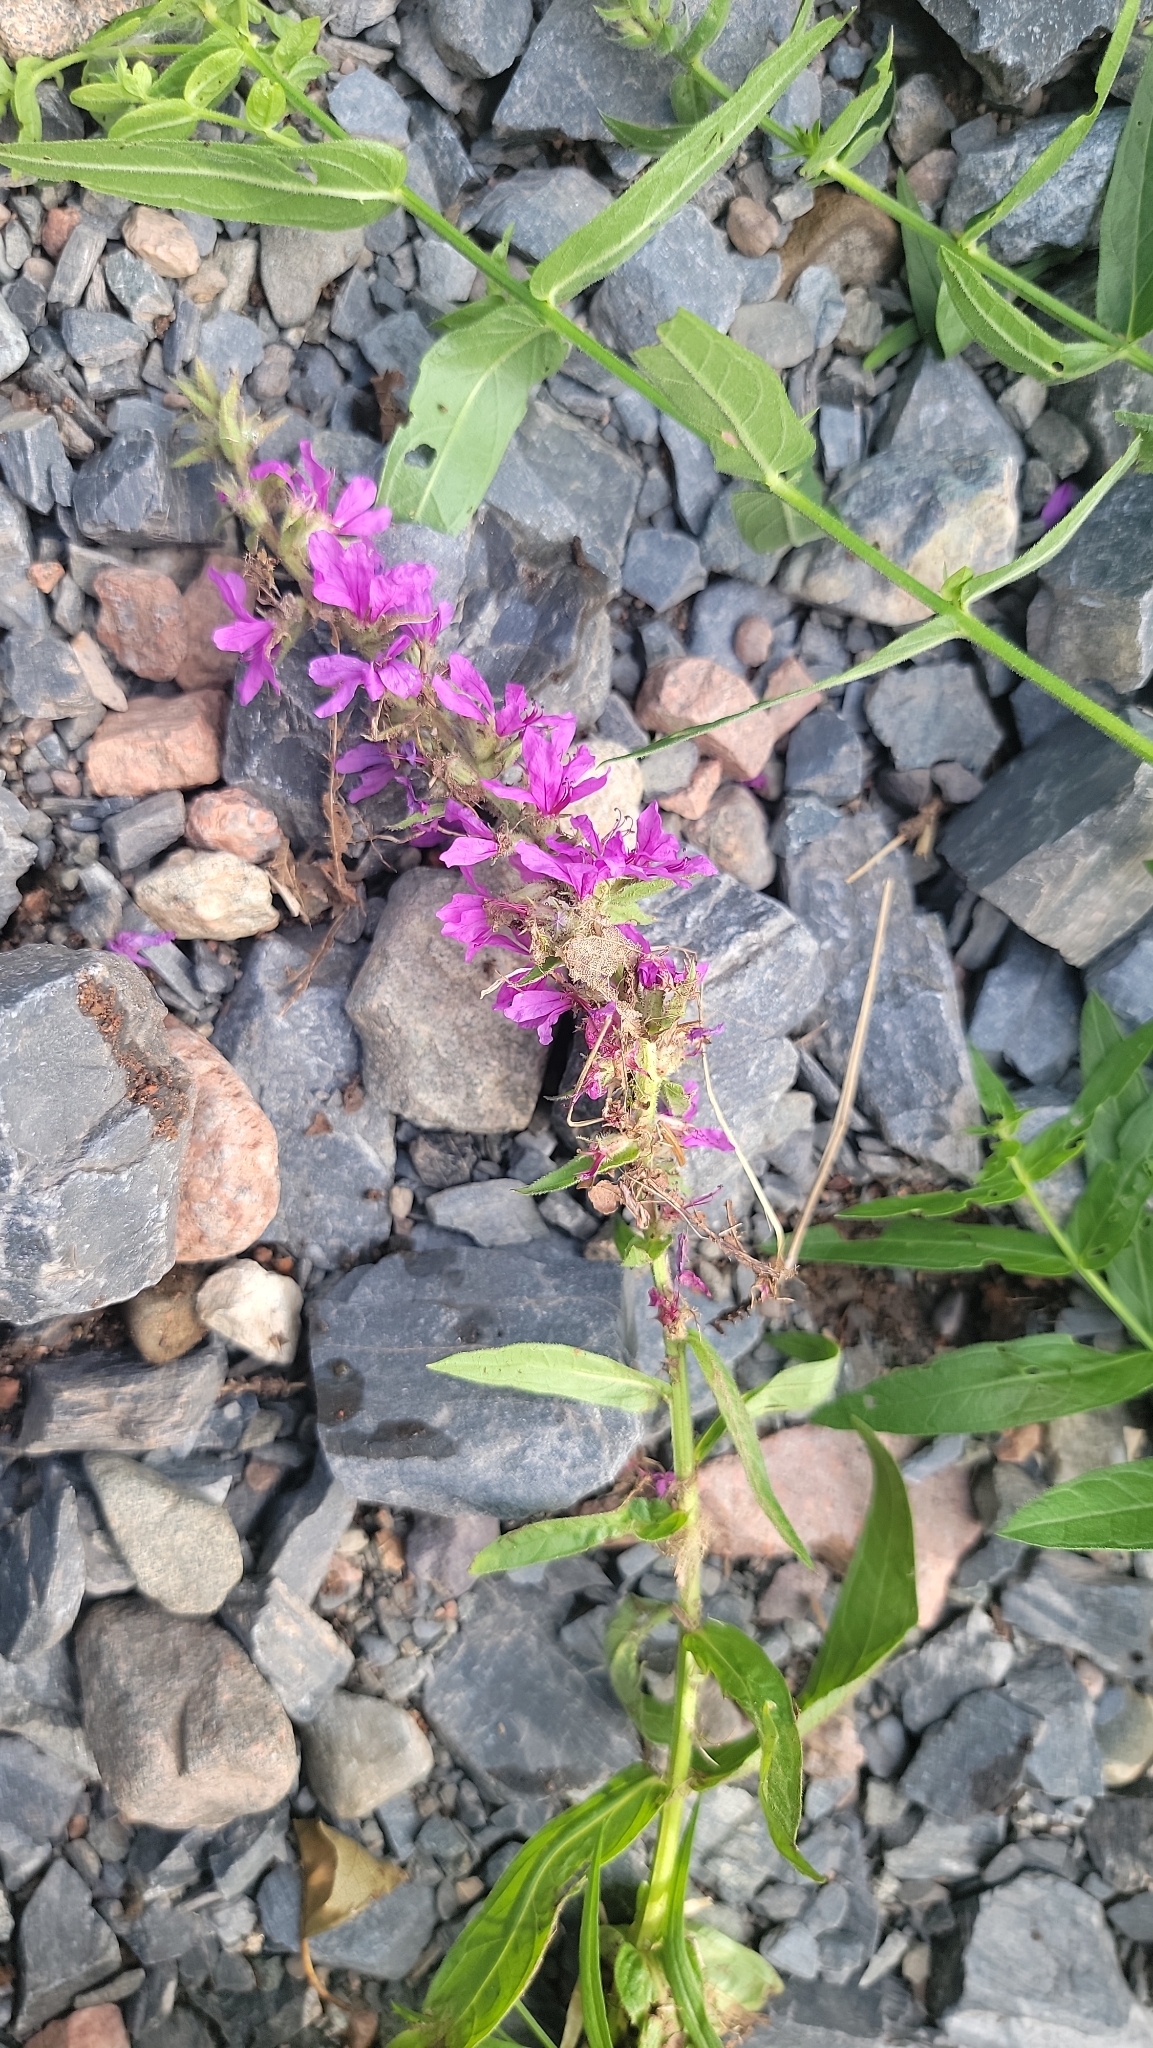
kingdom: Plantae
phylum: Tracheophyta
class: Magnoliopsida
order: Myrtales
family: Lythraceae
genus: Lythrum
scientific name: Lythrum salicaria
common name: Purple loosestrife
